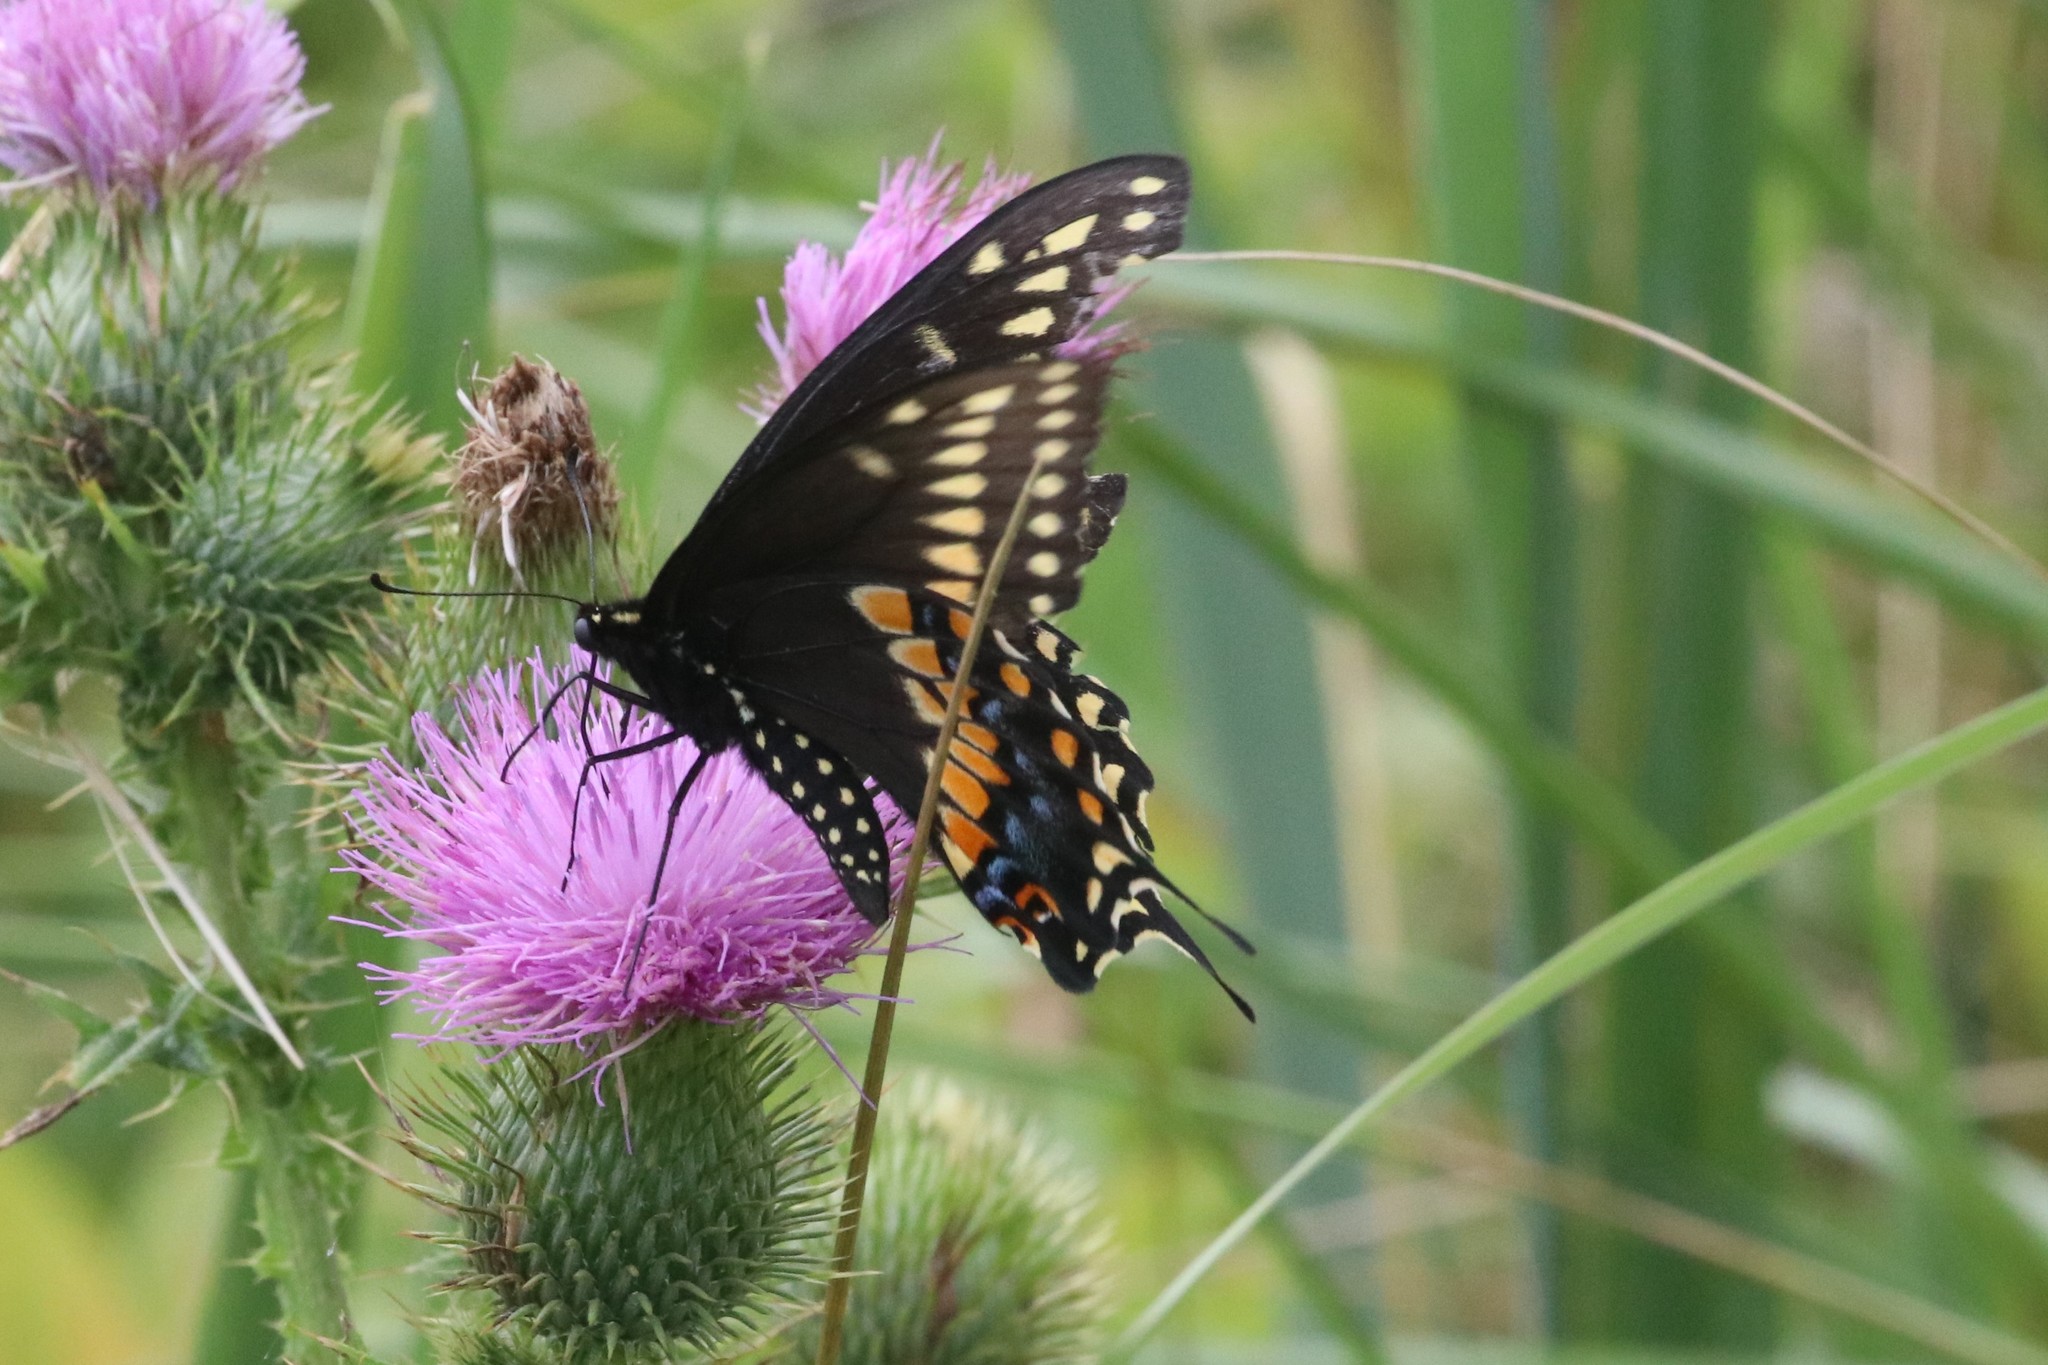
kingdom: Animalia
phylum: Arthropoda
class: Insecta
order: Lepidoptera
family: Papilionidae
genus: Papilio
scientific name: Papilio polyxenes
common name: Black swallowtail
